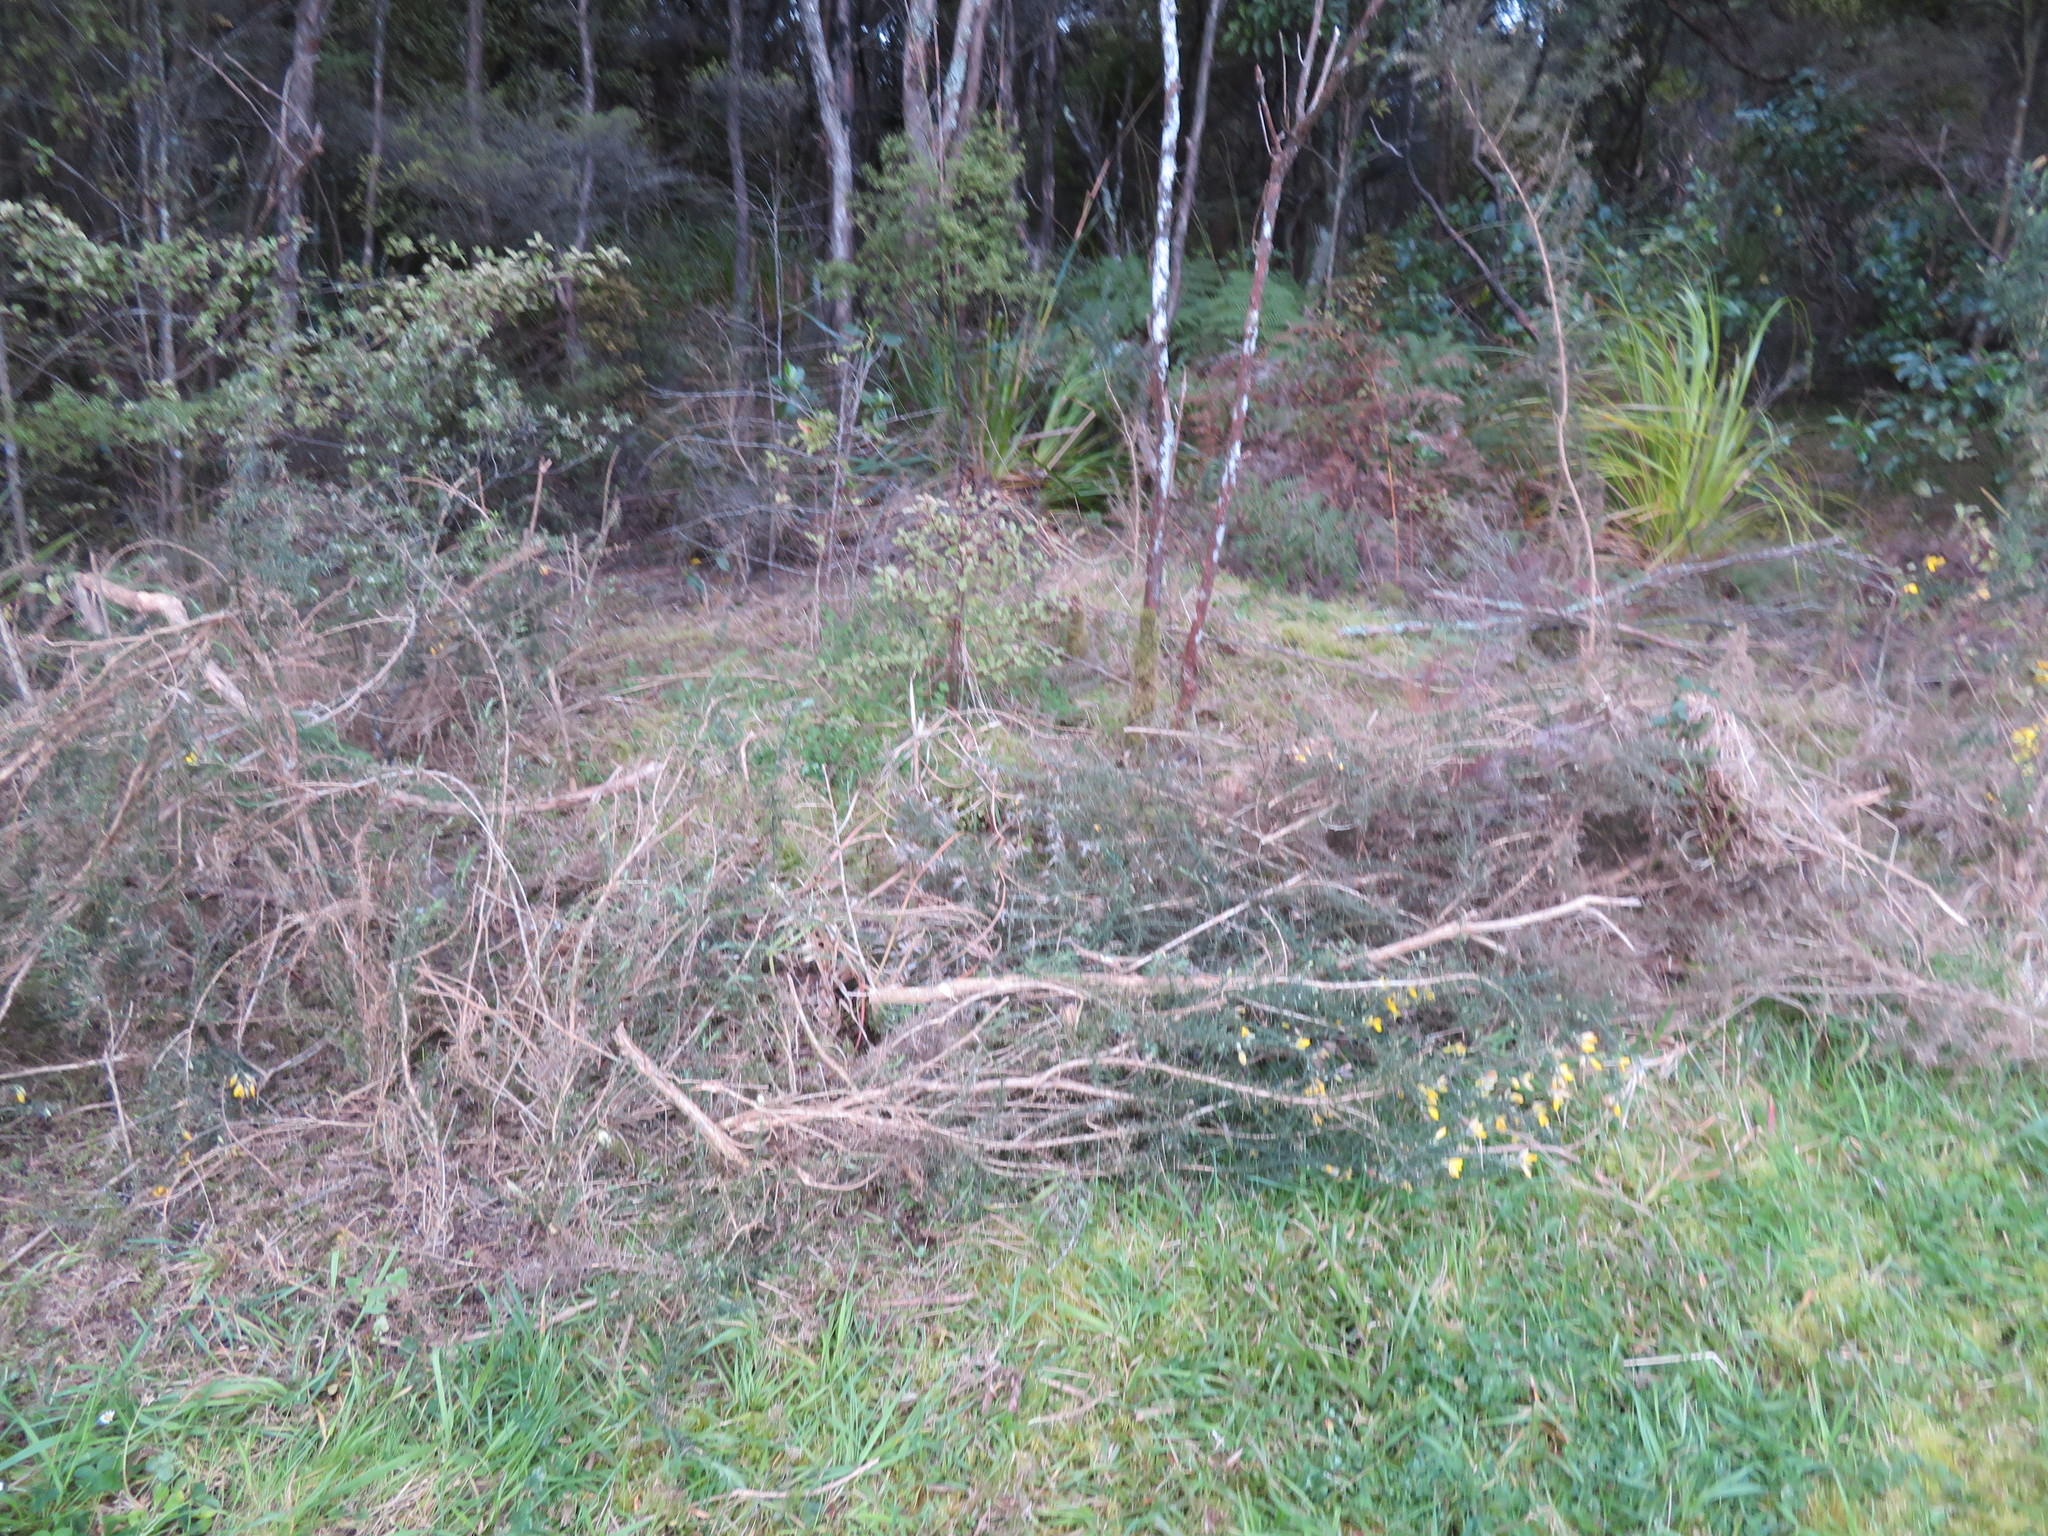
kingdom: Plantae
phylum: Tracheophyta
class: Magnoliopsida
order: Fabales
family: Fabaceae
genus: Ulex
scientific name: Ulex europaeus
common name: Common gorse
